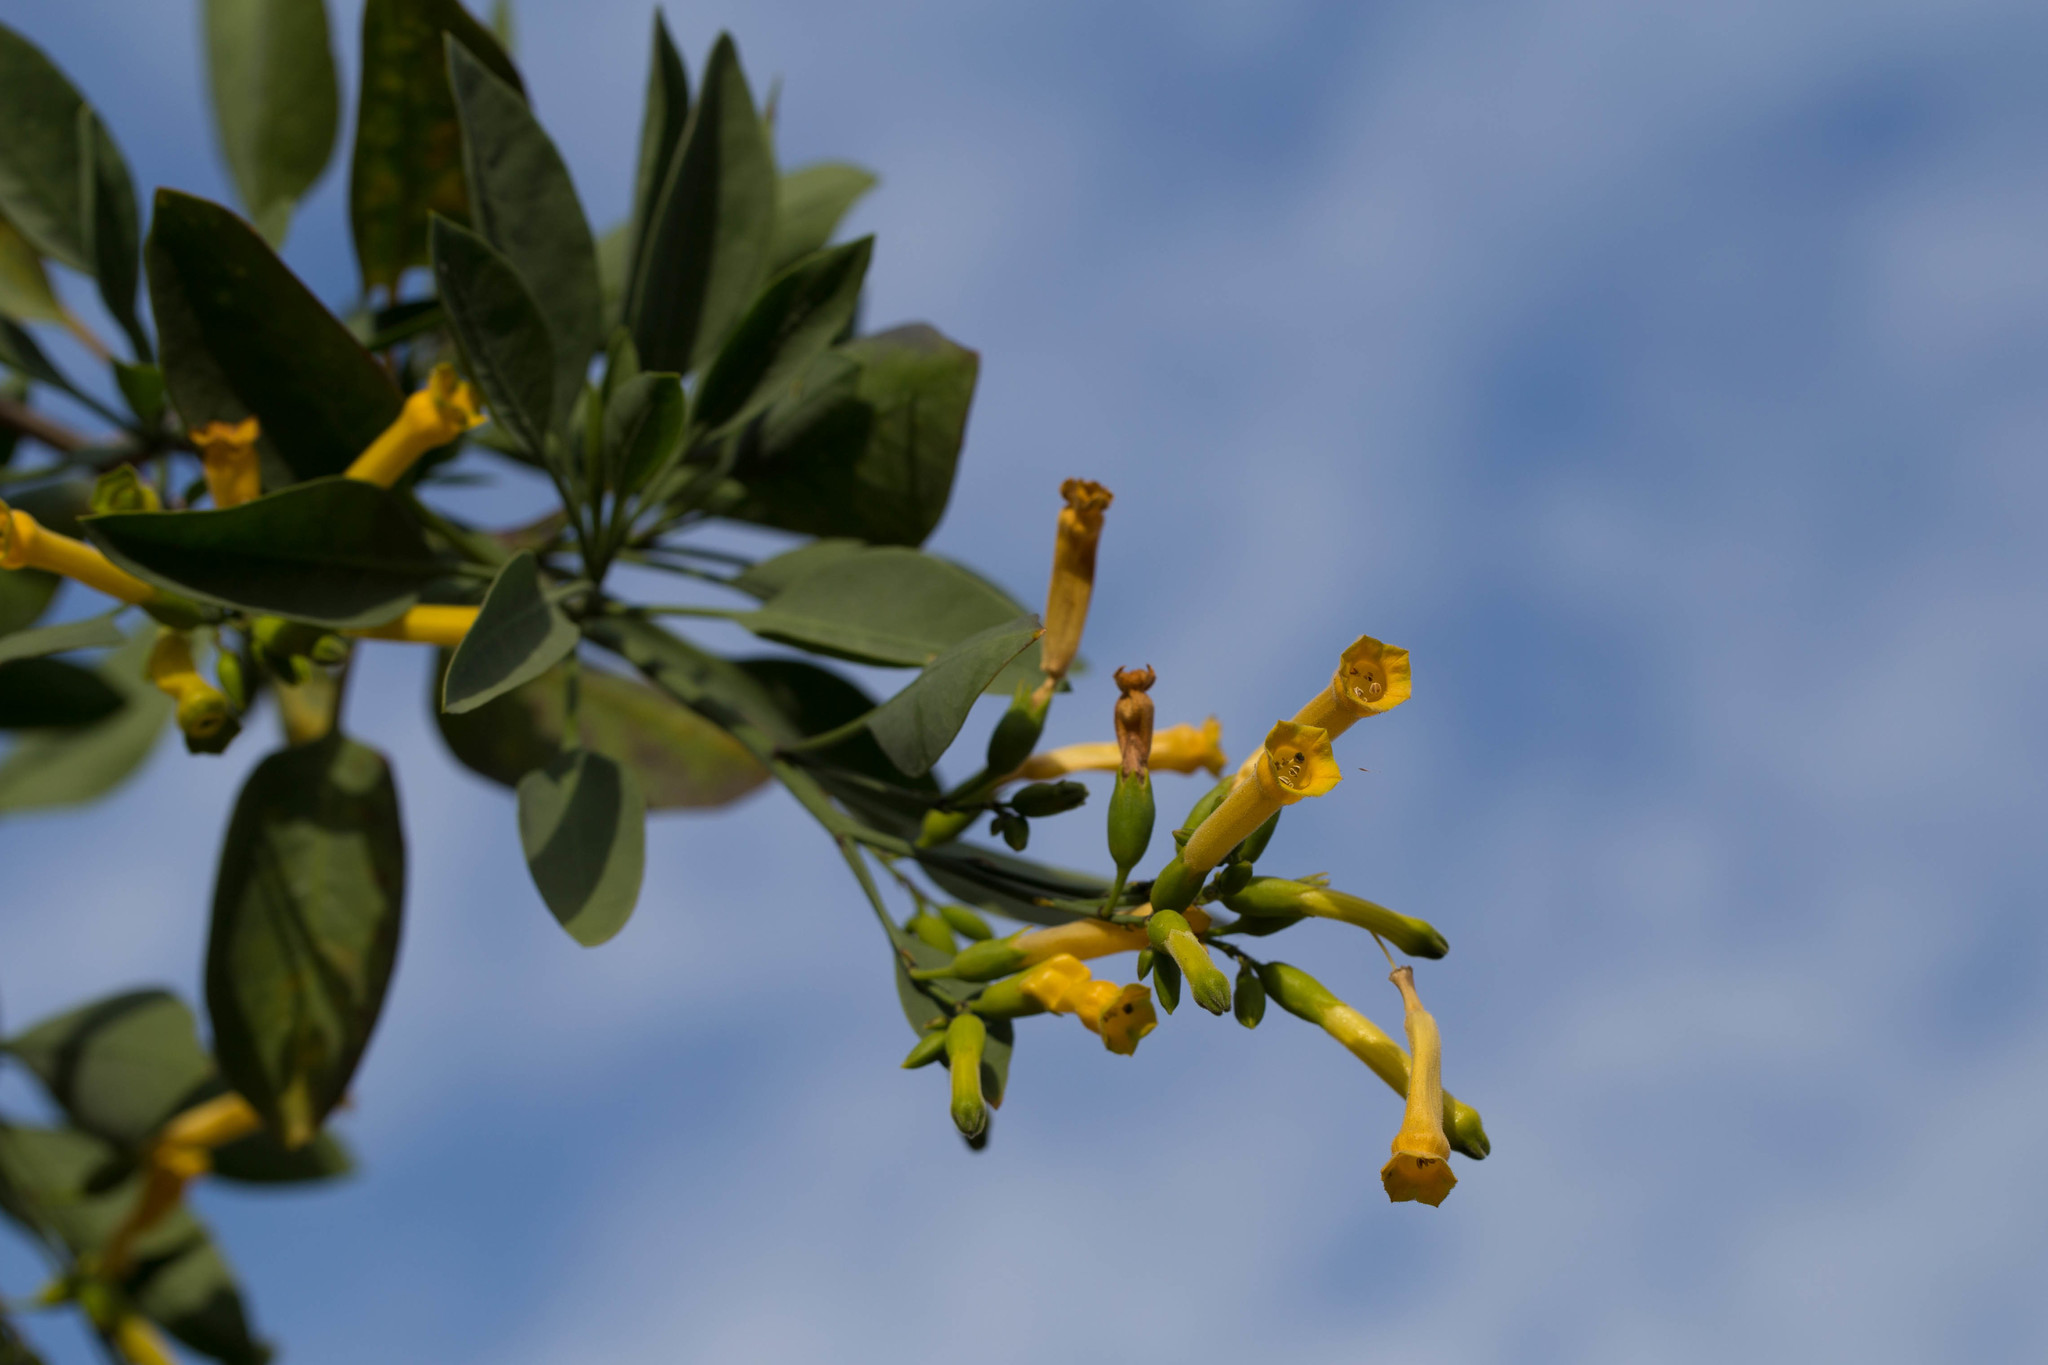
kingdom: Plantae
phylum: Tracheophyta
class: Magnoliopsida
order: Solanales
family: Solanaceae
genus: Nicotiana
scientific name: Nicotiana glauca
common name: Tree tobacco
